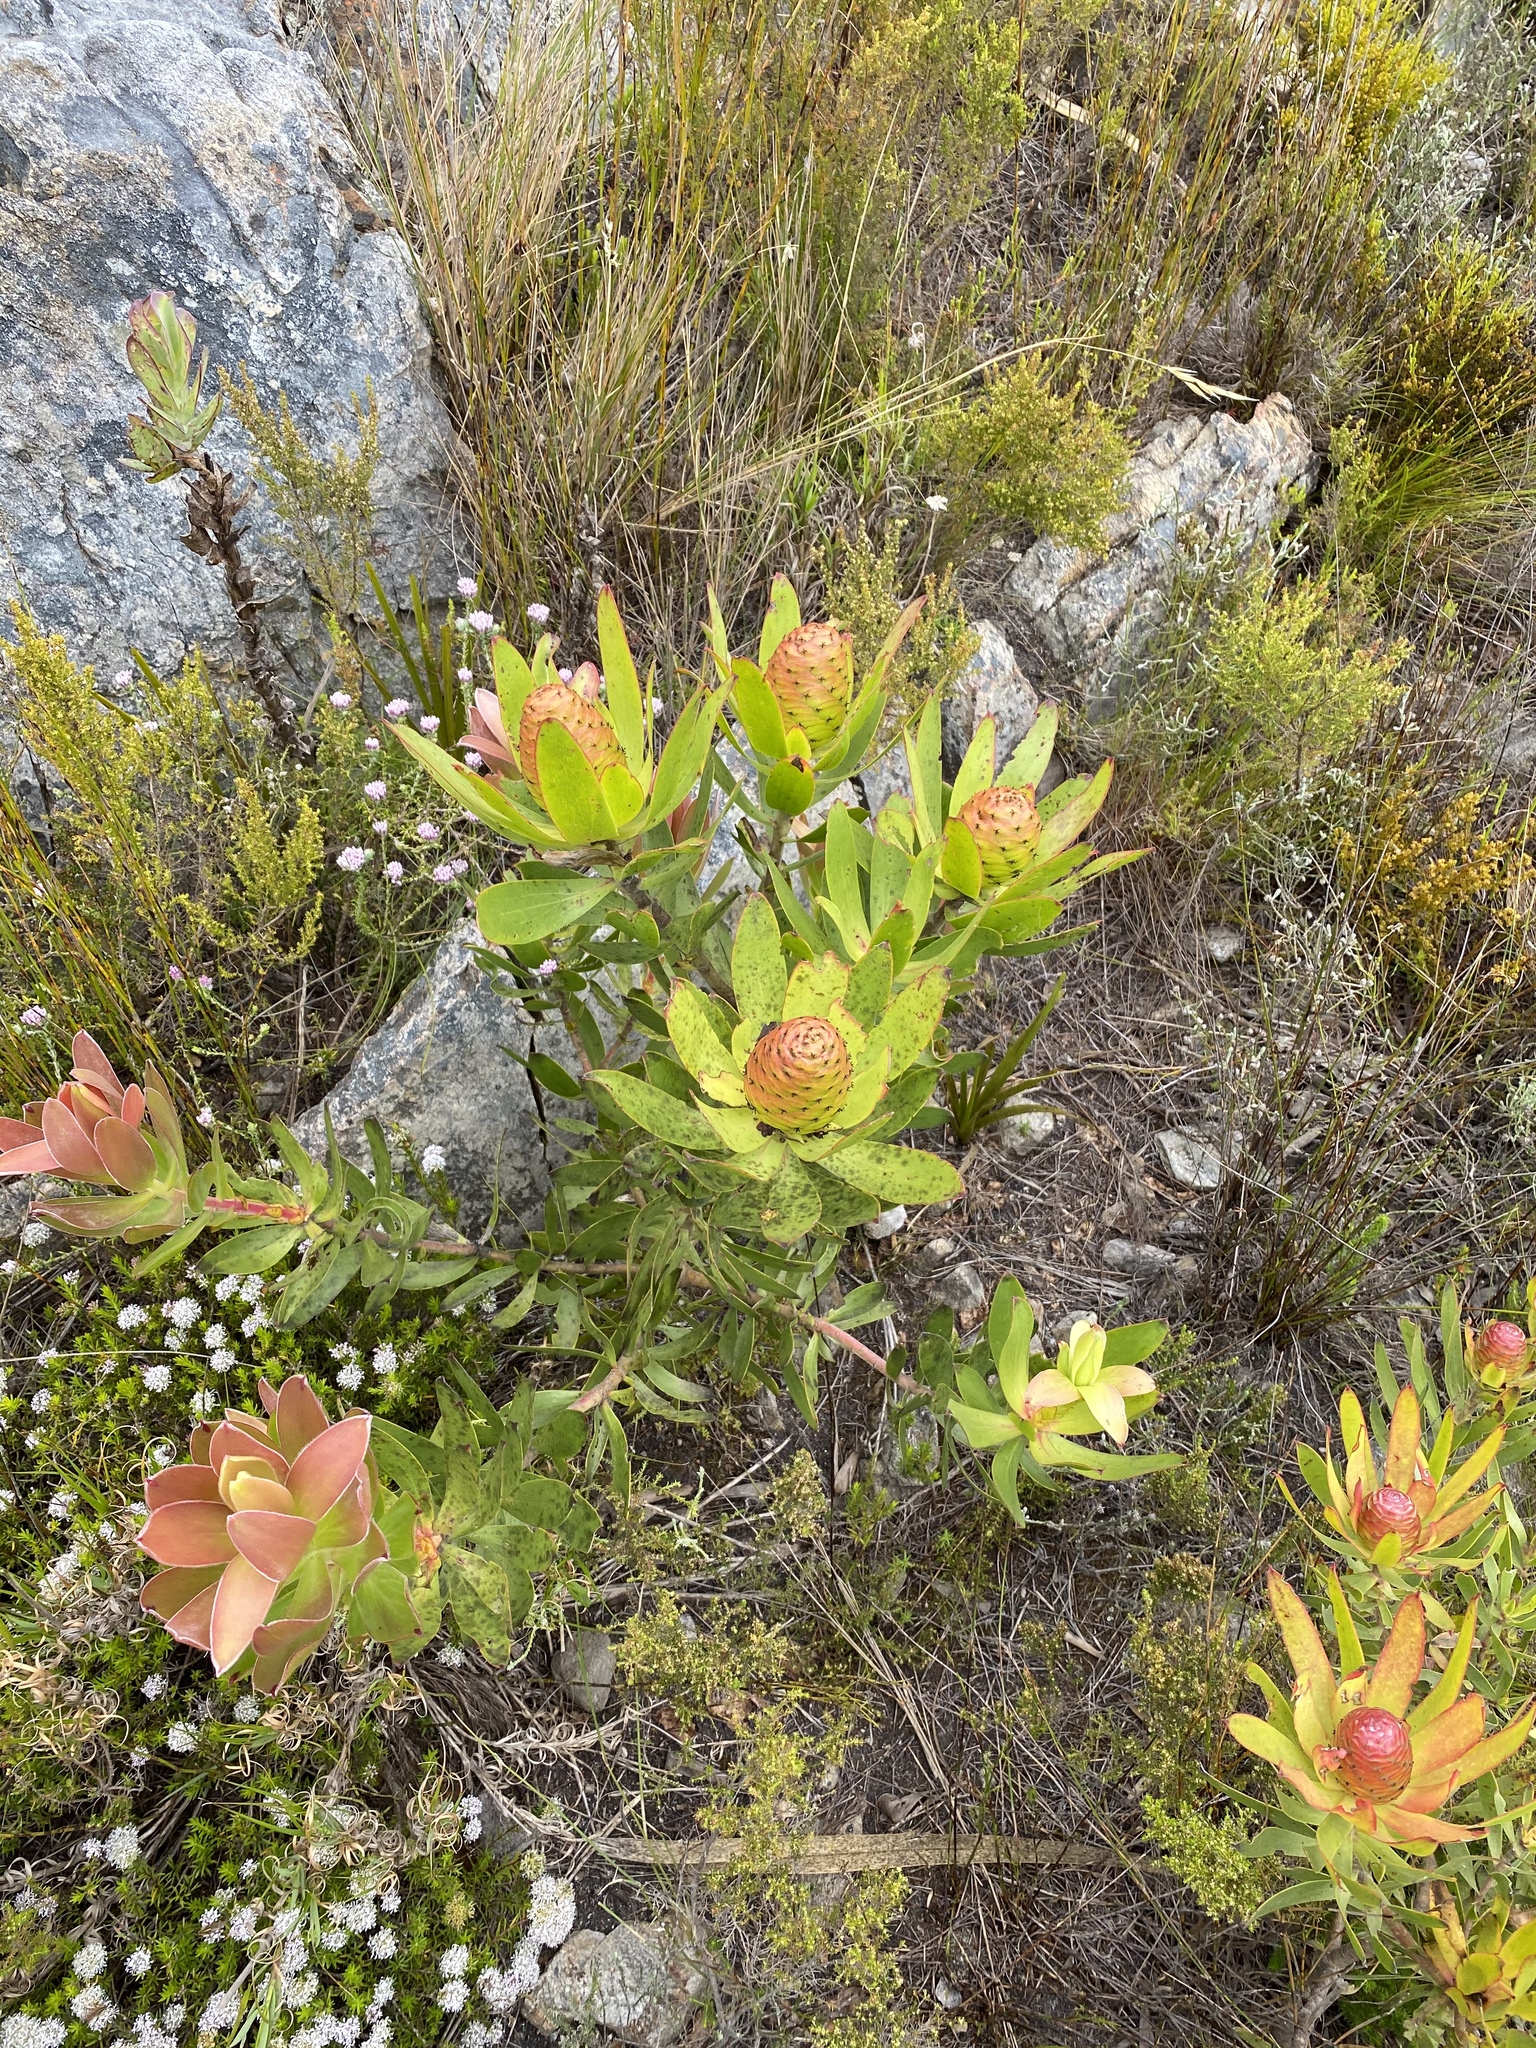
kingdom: Plantae
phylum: Tracheophyta
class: Magnoliopsida
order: Proteales
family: Proteaceae
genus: Leucadendron
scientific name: Leucadendron gandogeri
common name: Broad-leaf conebush
